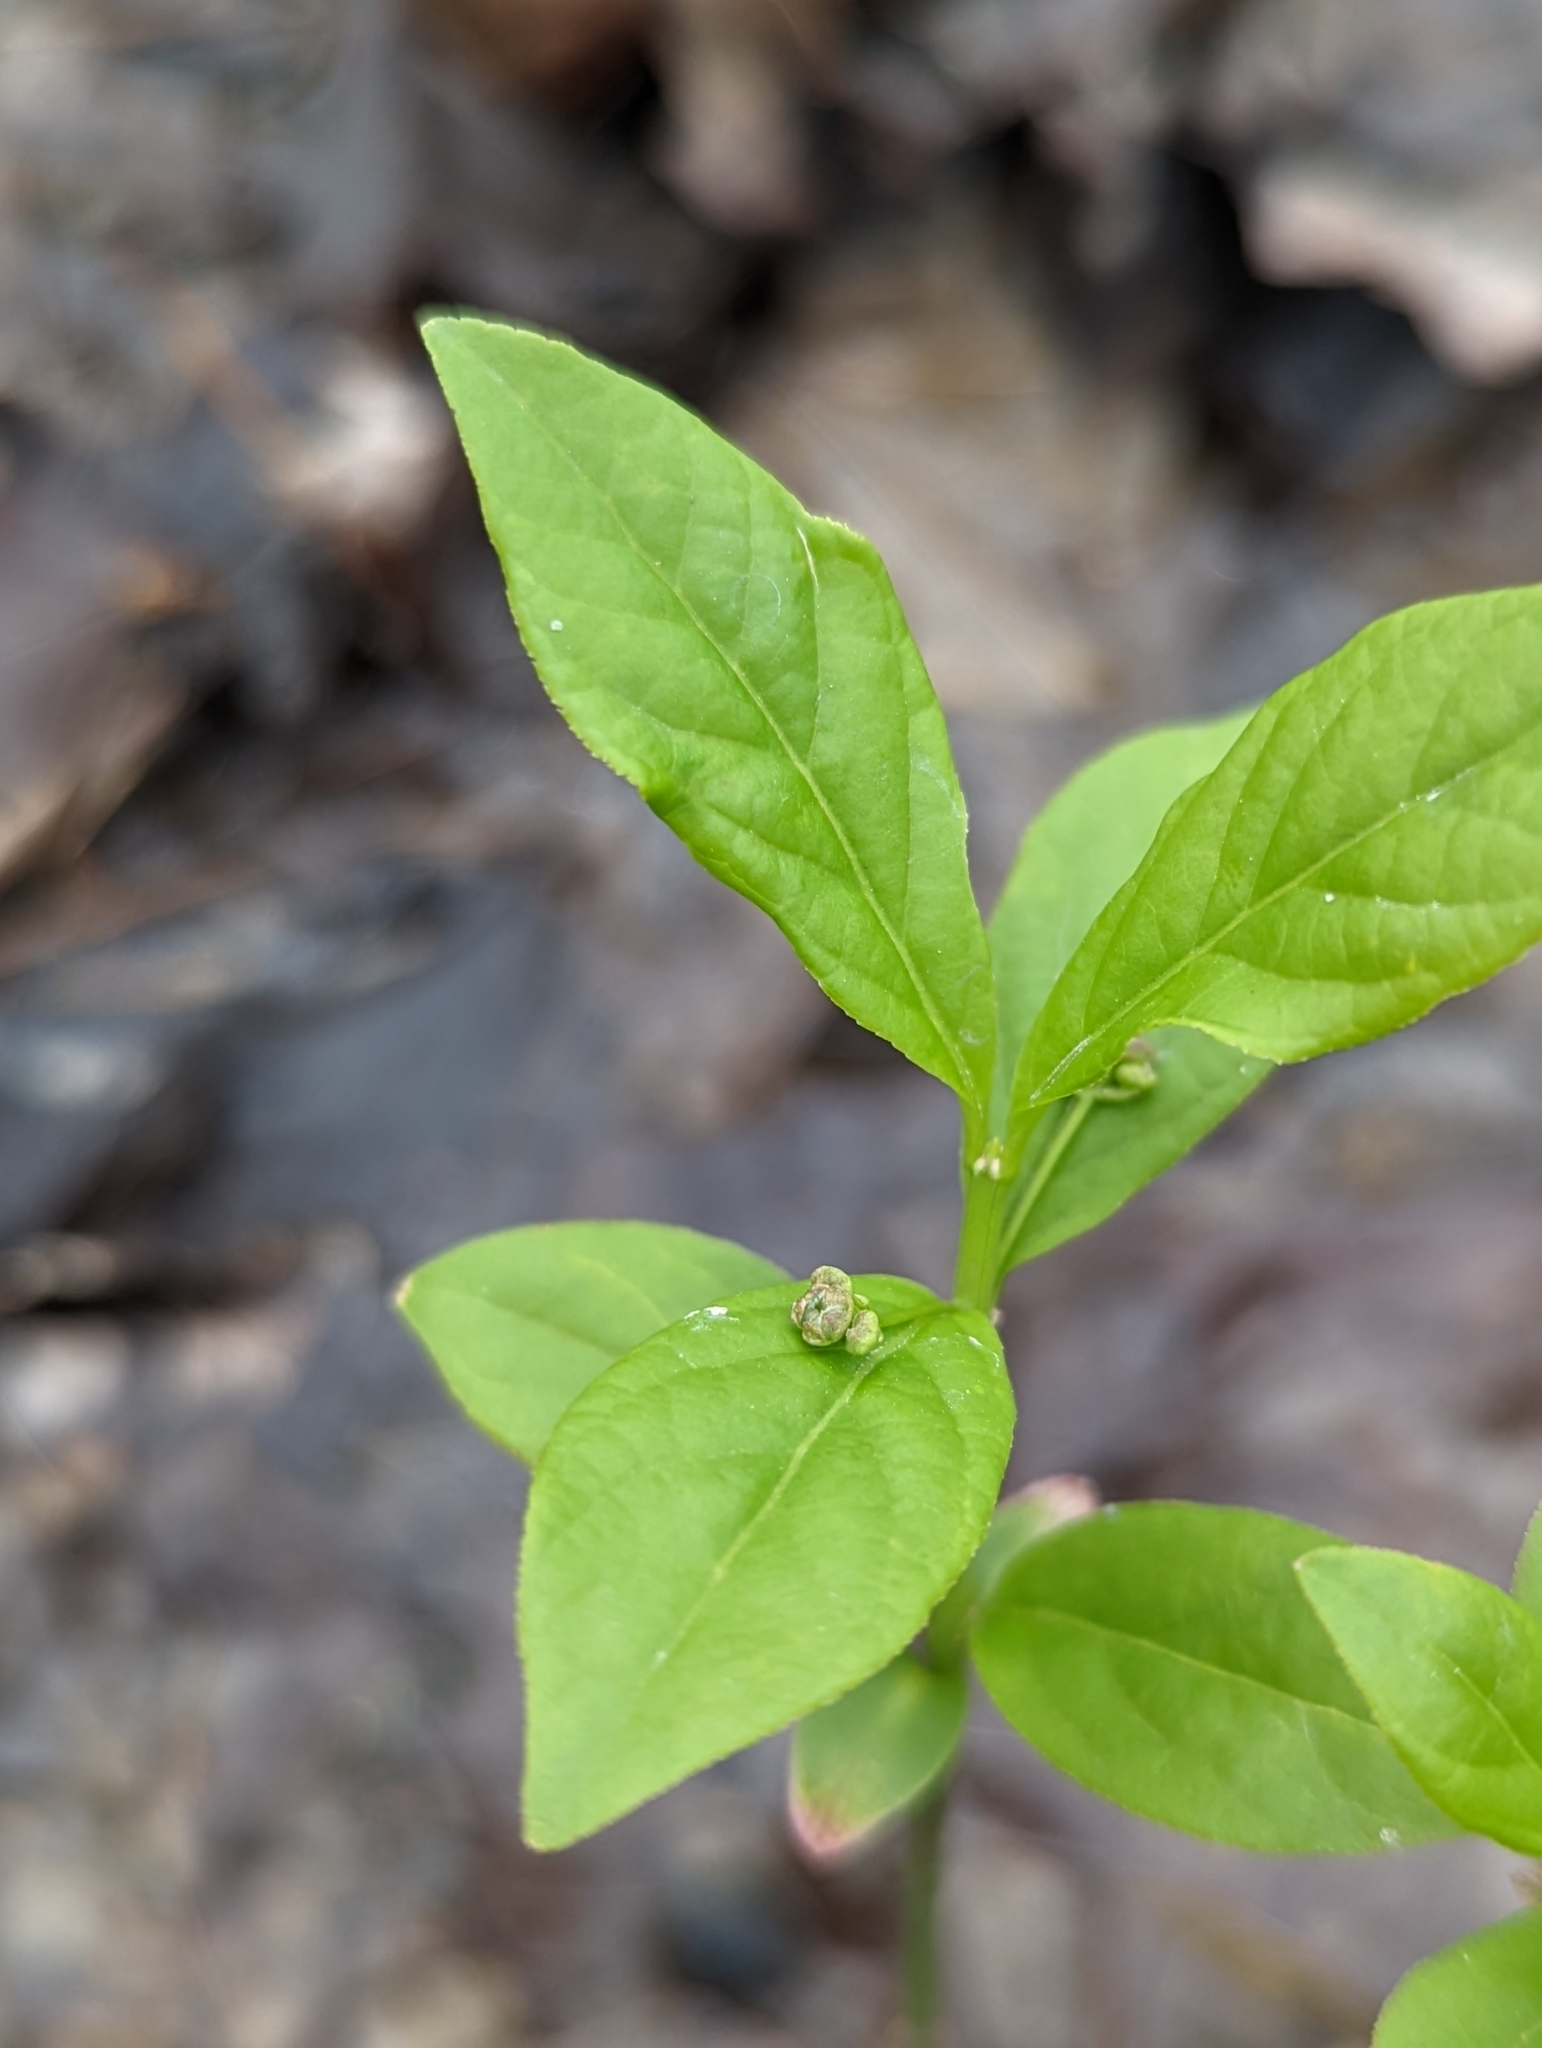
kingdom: Plantae
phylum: Tracheophyta
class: Magnoliopsida
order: Celastrales
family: Celastraceae
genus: Euonymus
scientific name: Euonymus obovatus
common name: Running strawberry-bush
